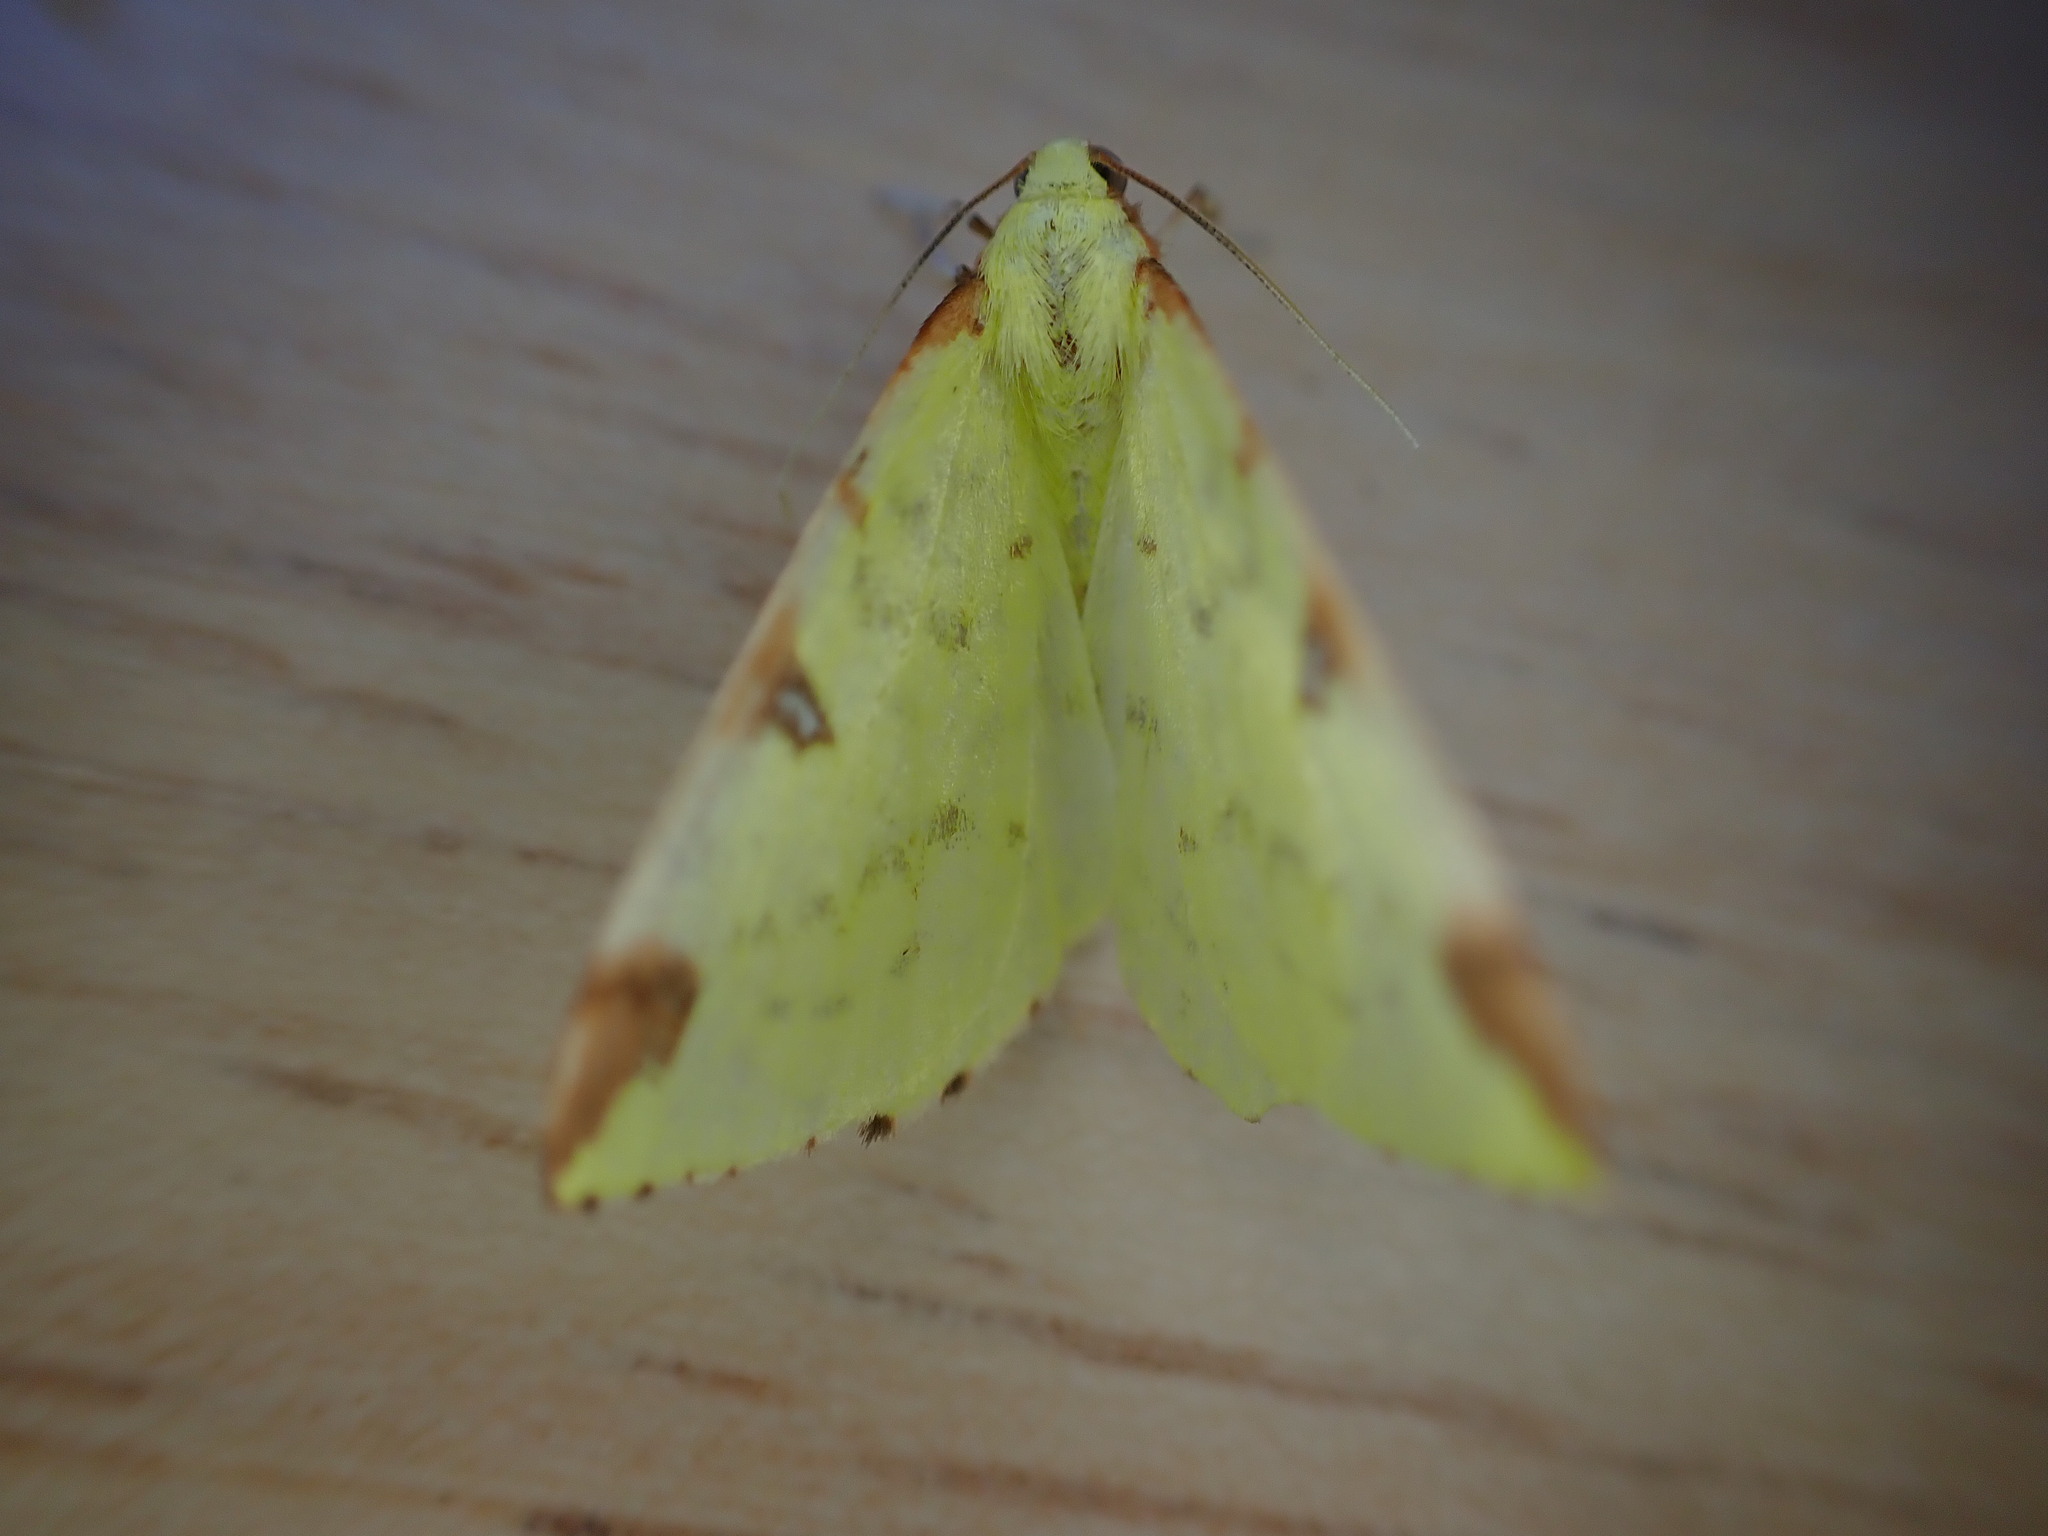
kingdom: Animalia
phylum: Arthropoda
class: Insecta
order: Lepidoptera
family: Geometridae
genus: Opisthograptis
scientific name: Opisthograptis luteolata
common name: Brimstone moth
